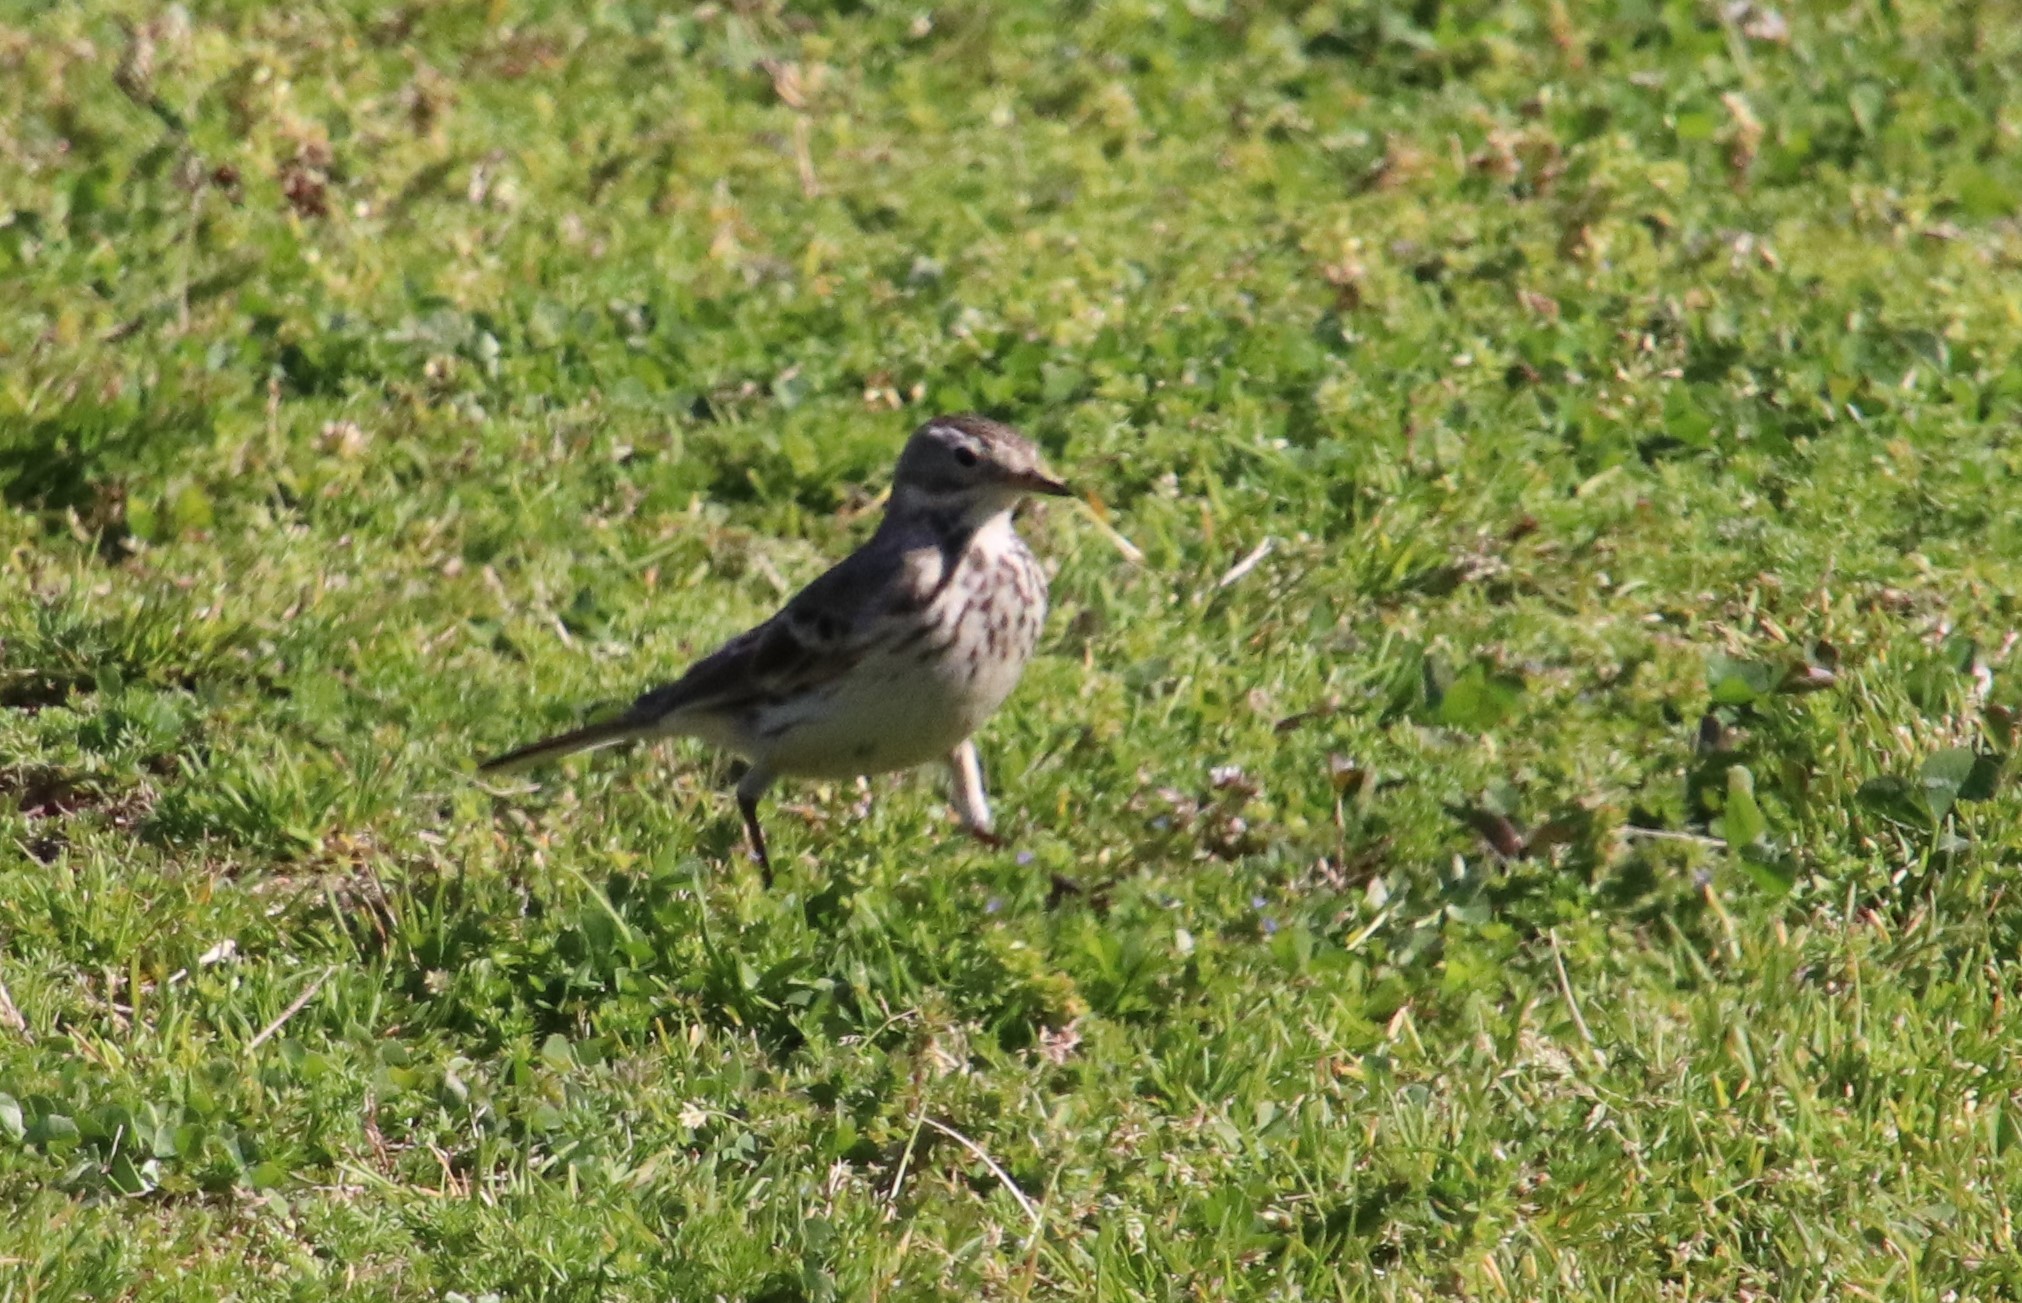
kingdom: Animalia
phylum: Chordata
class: Aves
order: Passeriformes
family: Motacillidae
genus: Anthus
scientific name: Anthus rubescens
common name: Buff-bellied pipit
